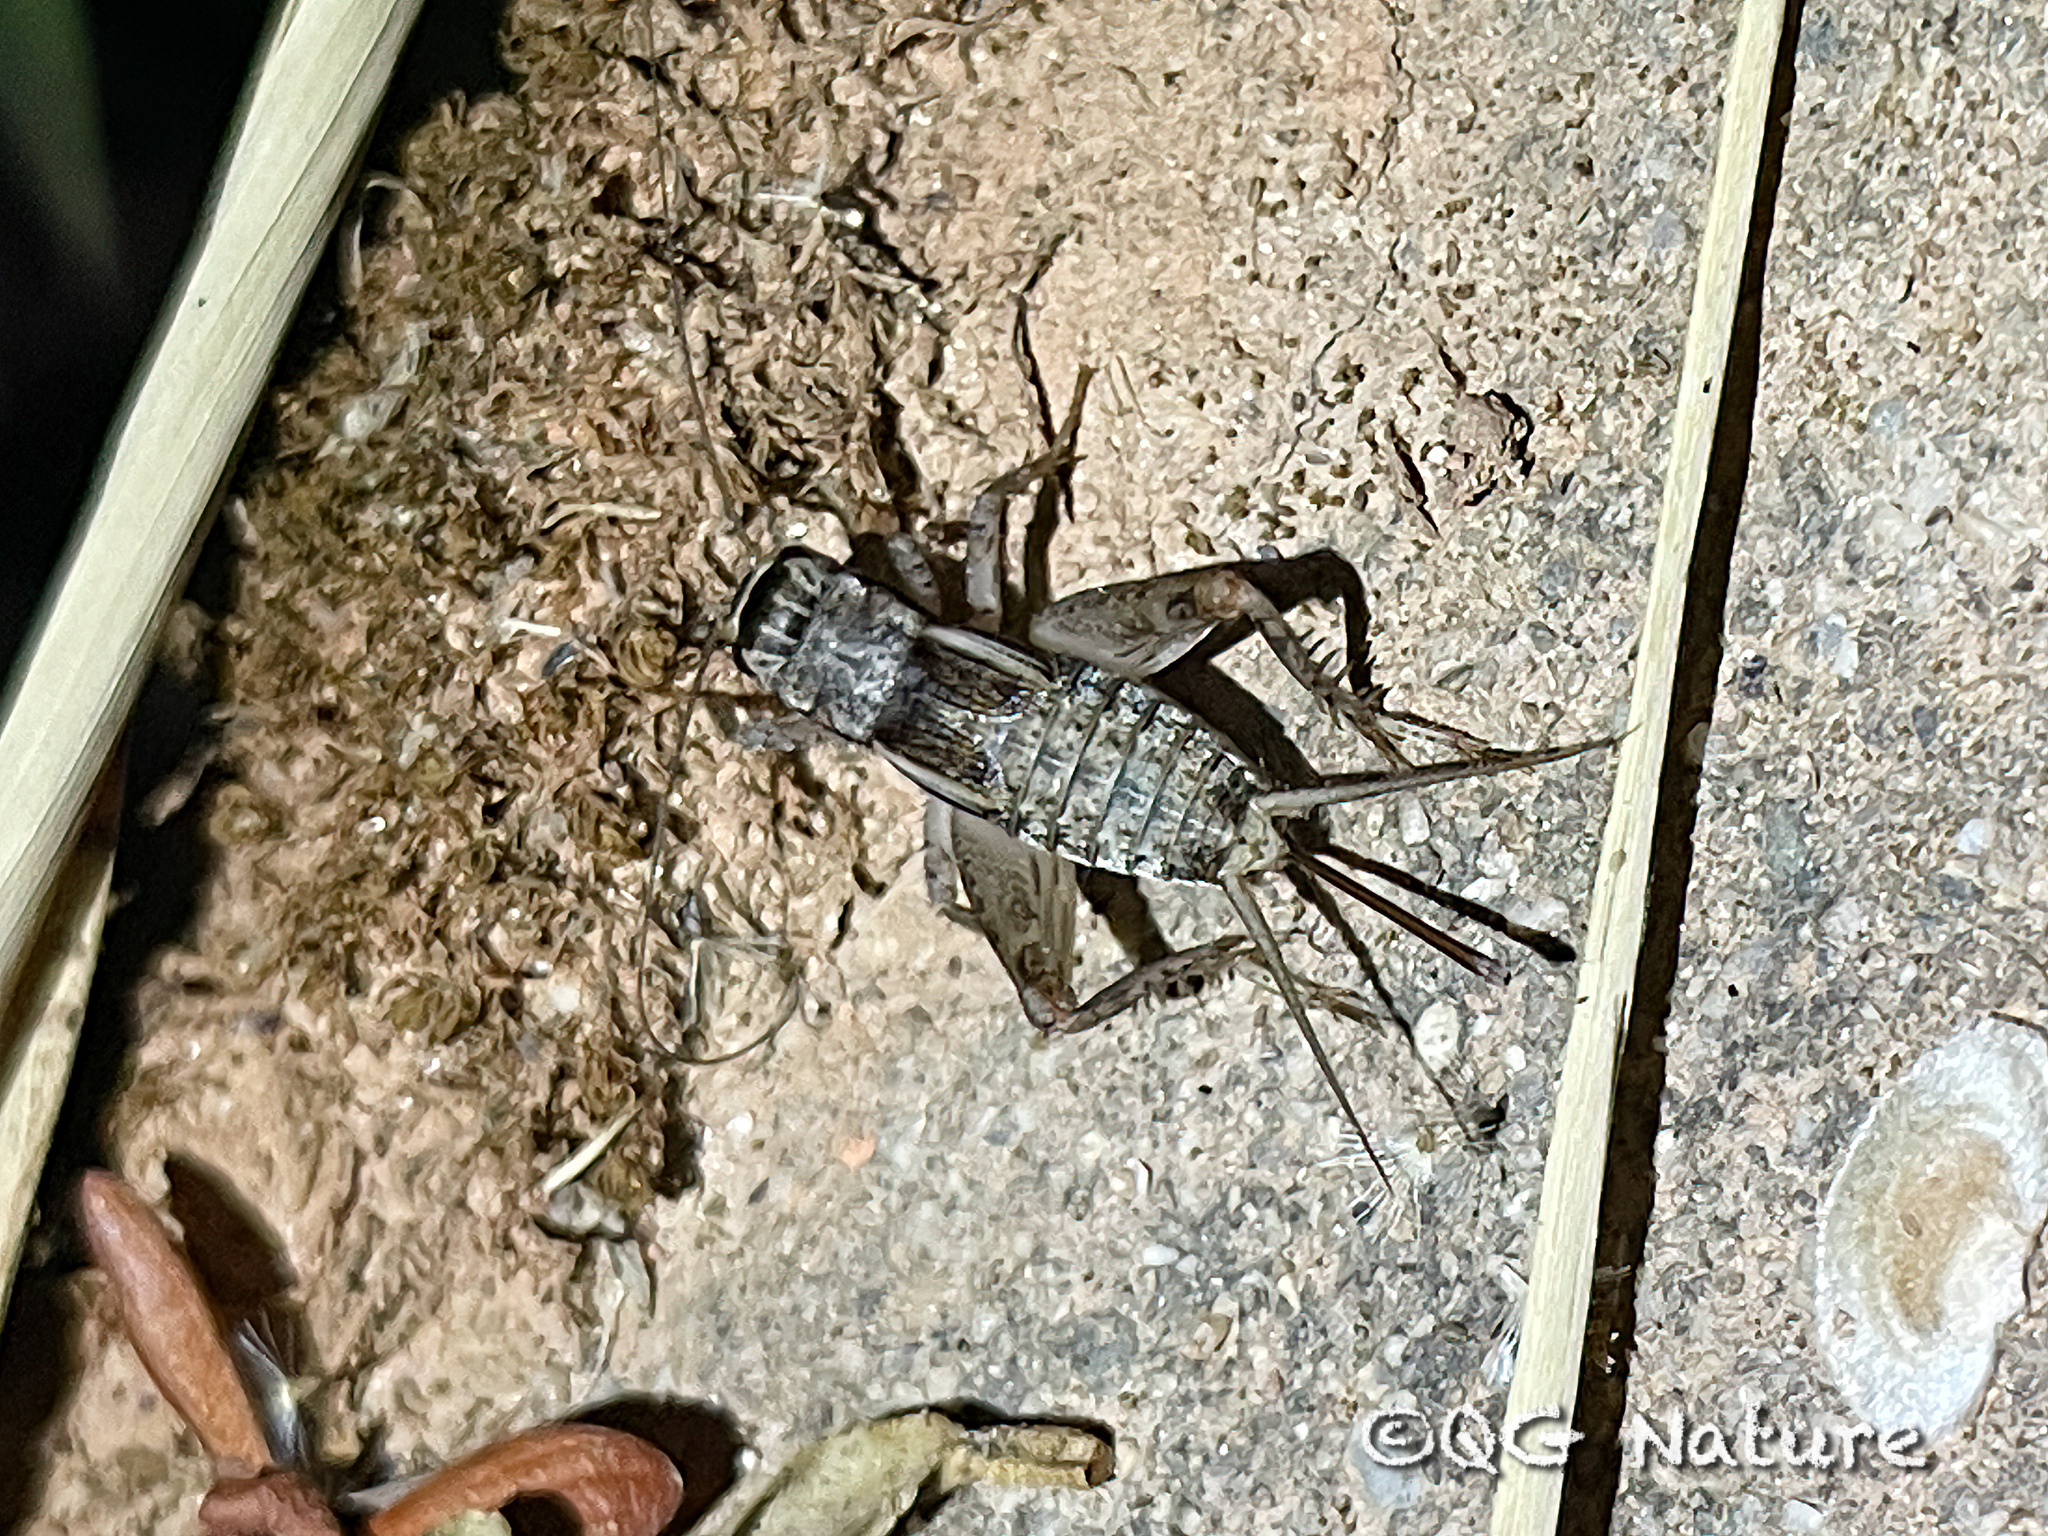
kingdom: Animalia
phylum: Arthropoda
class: Insecta
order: Orthoptera
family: Gryllidae
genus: Velarifictorus
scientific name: Velarifictorus dianxiensis
